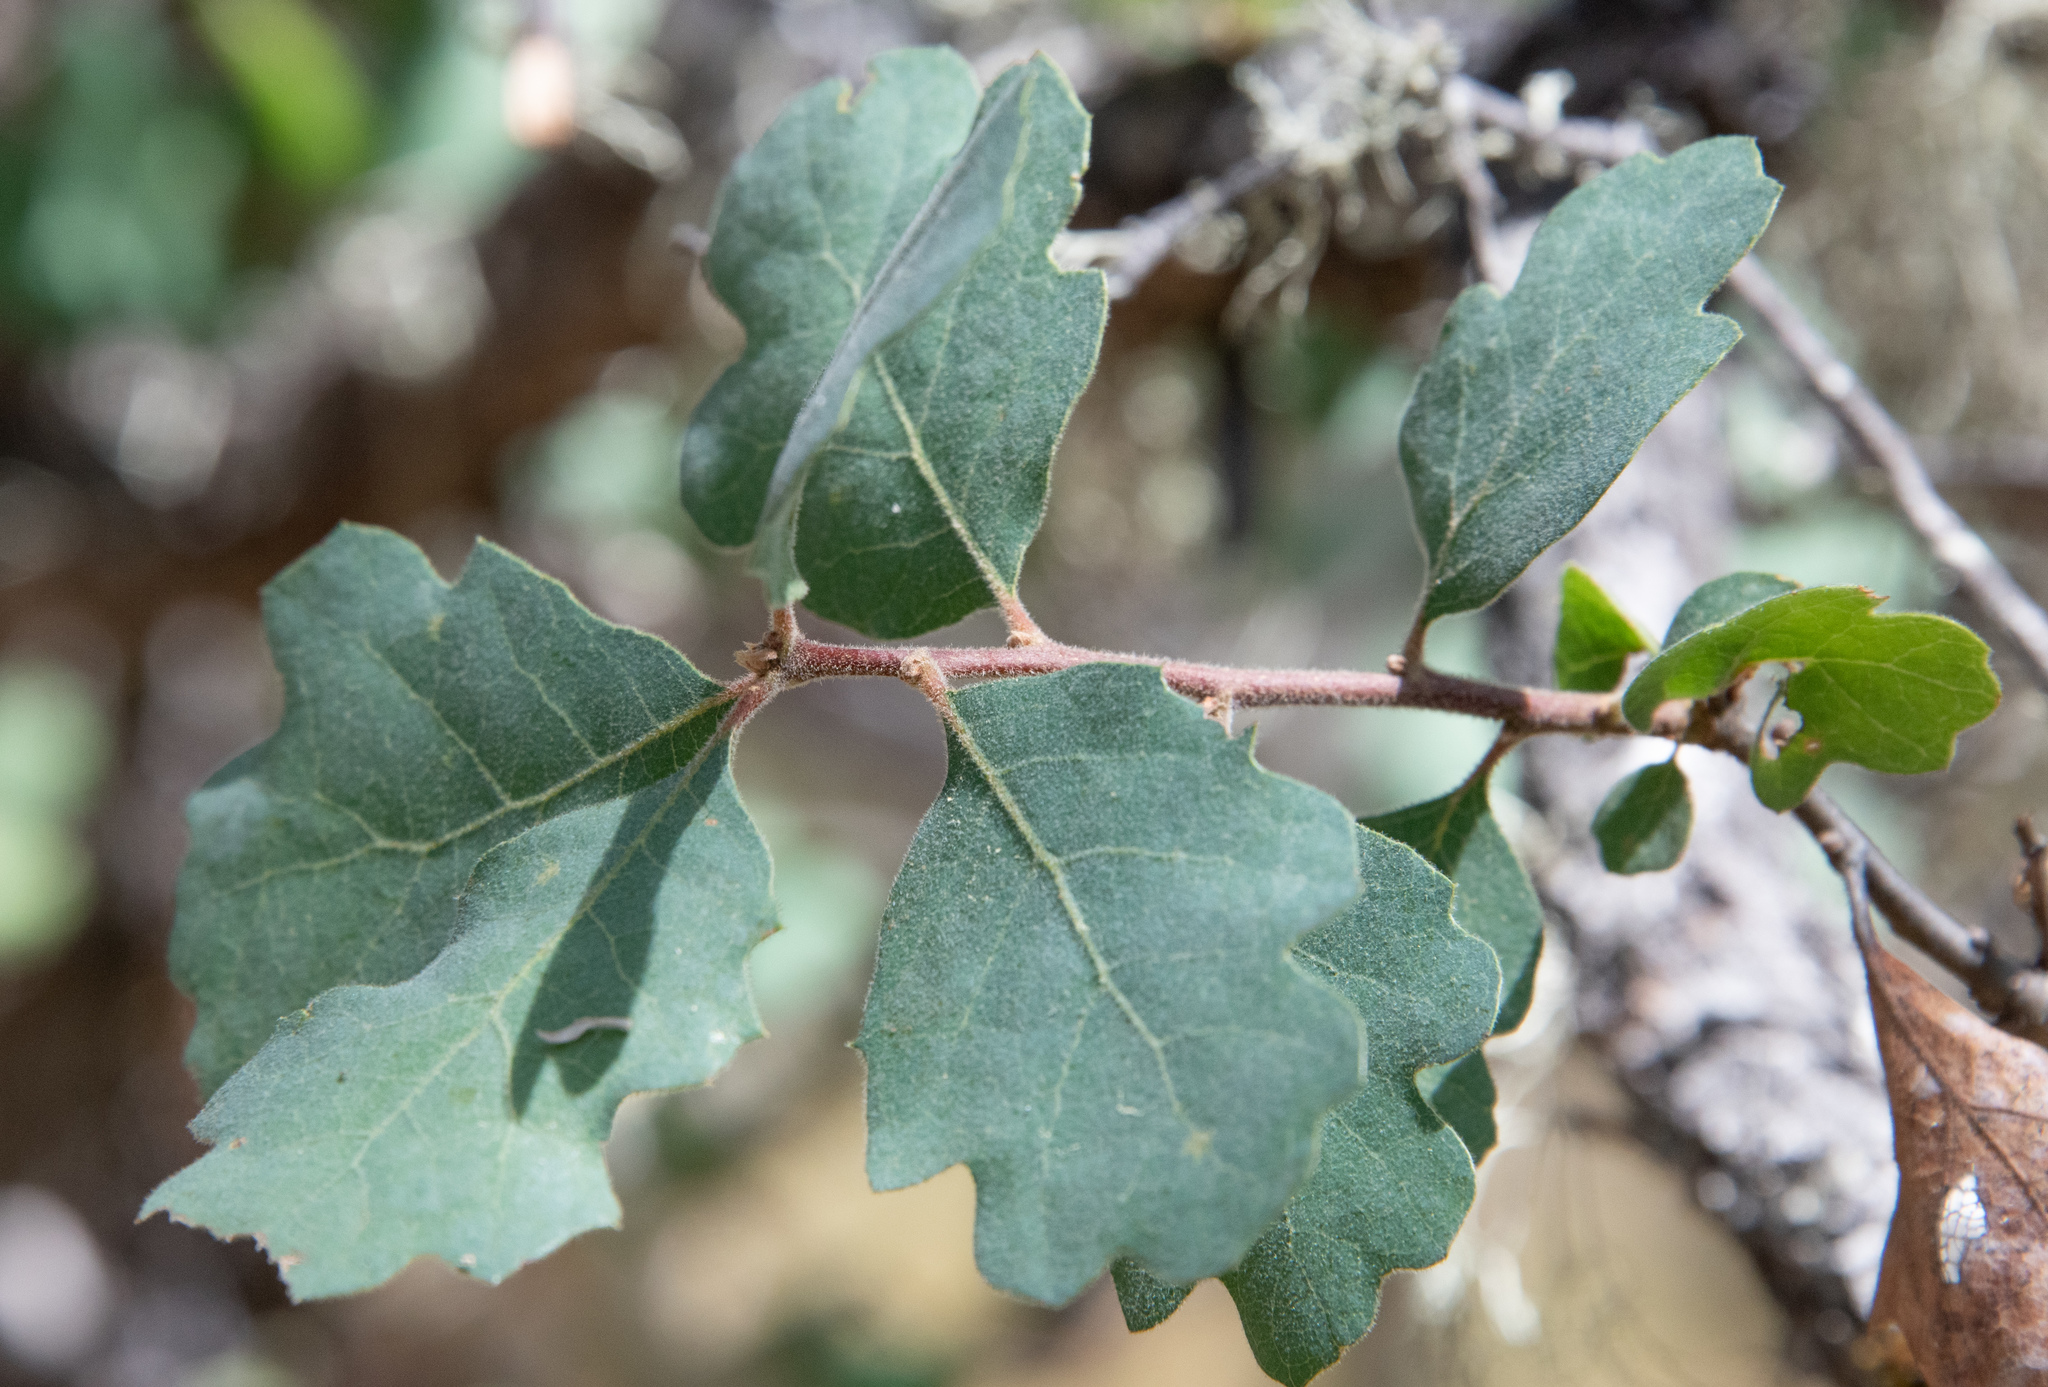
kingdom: Plantae
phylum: Tracheophyta
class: Magnoliopsida
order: Fagales
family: Fagaceae
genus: Quercus
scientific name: Quercus douglasii
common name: Blue oak
